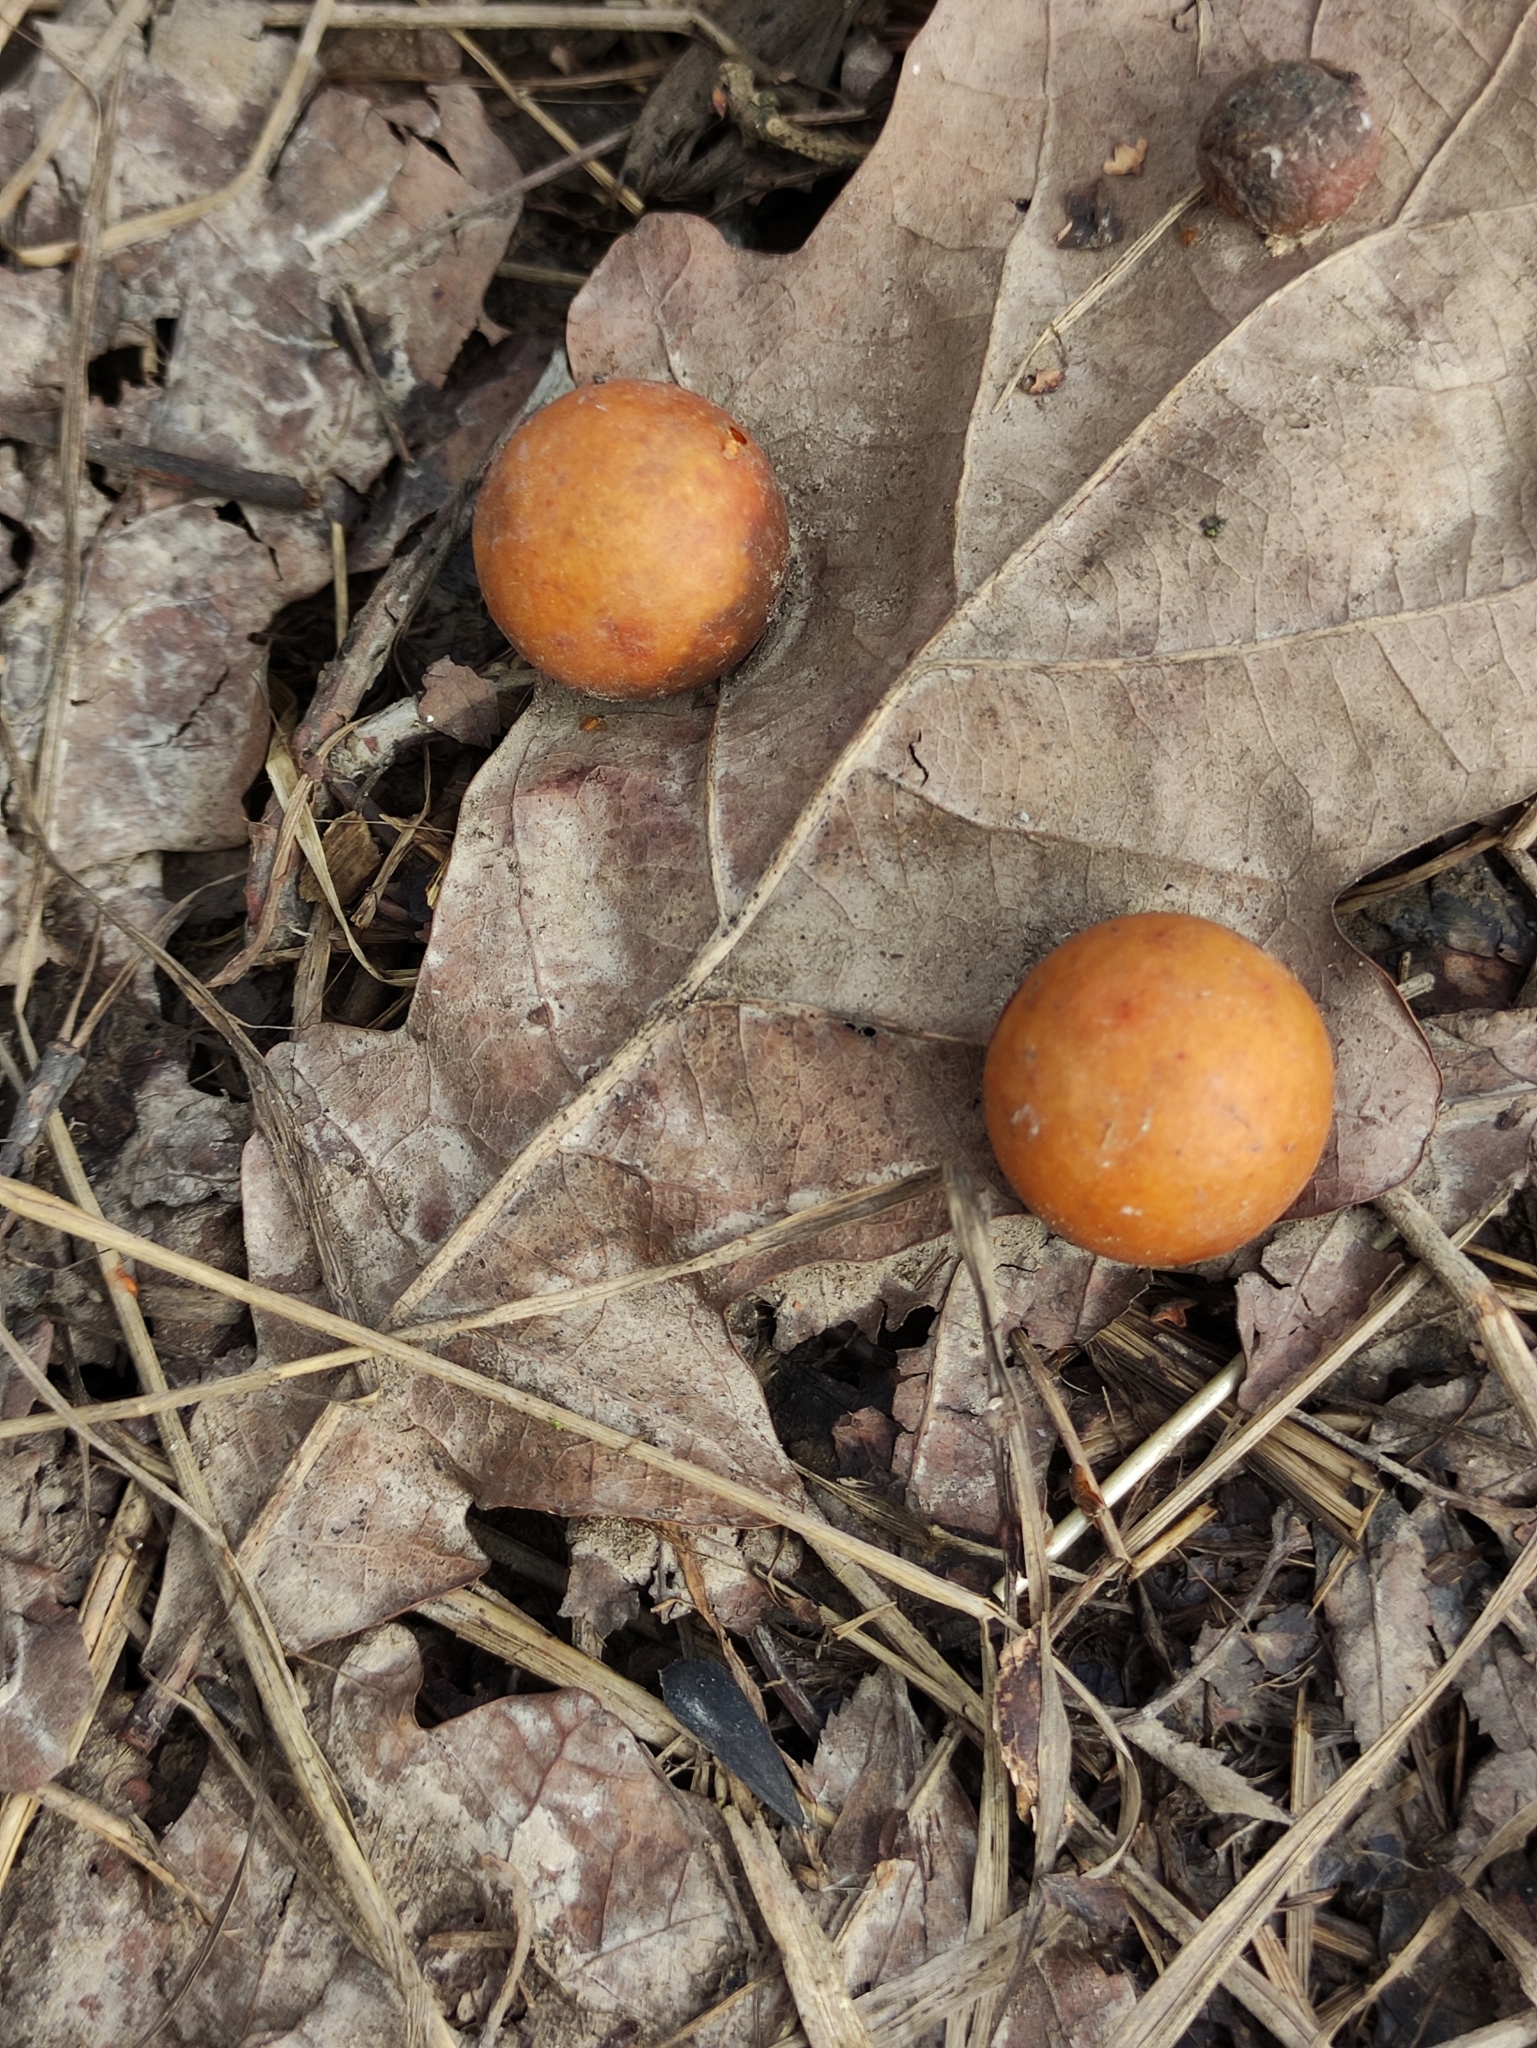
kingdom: Animalia
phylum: Arthropoda
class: Insecta
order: Hymenoptera
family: Cynipidae
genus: Cynips
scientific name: Cynips quercusfolii
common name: Cherry gall
